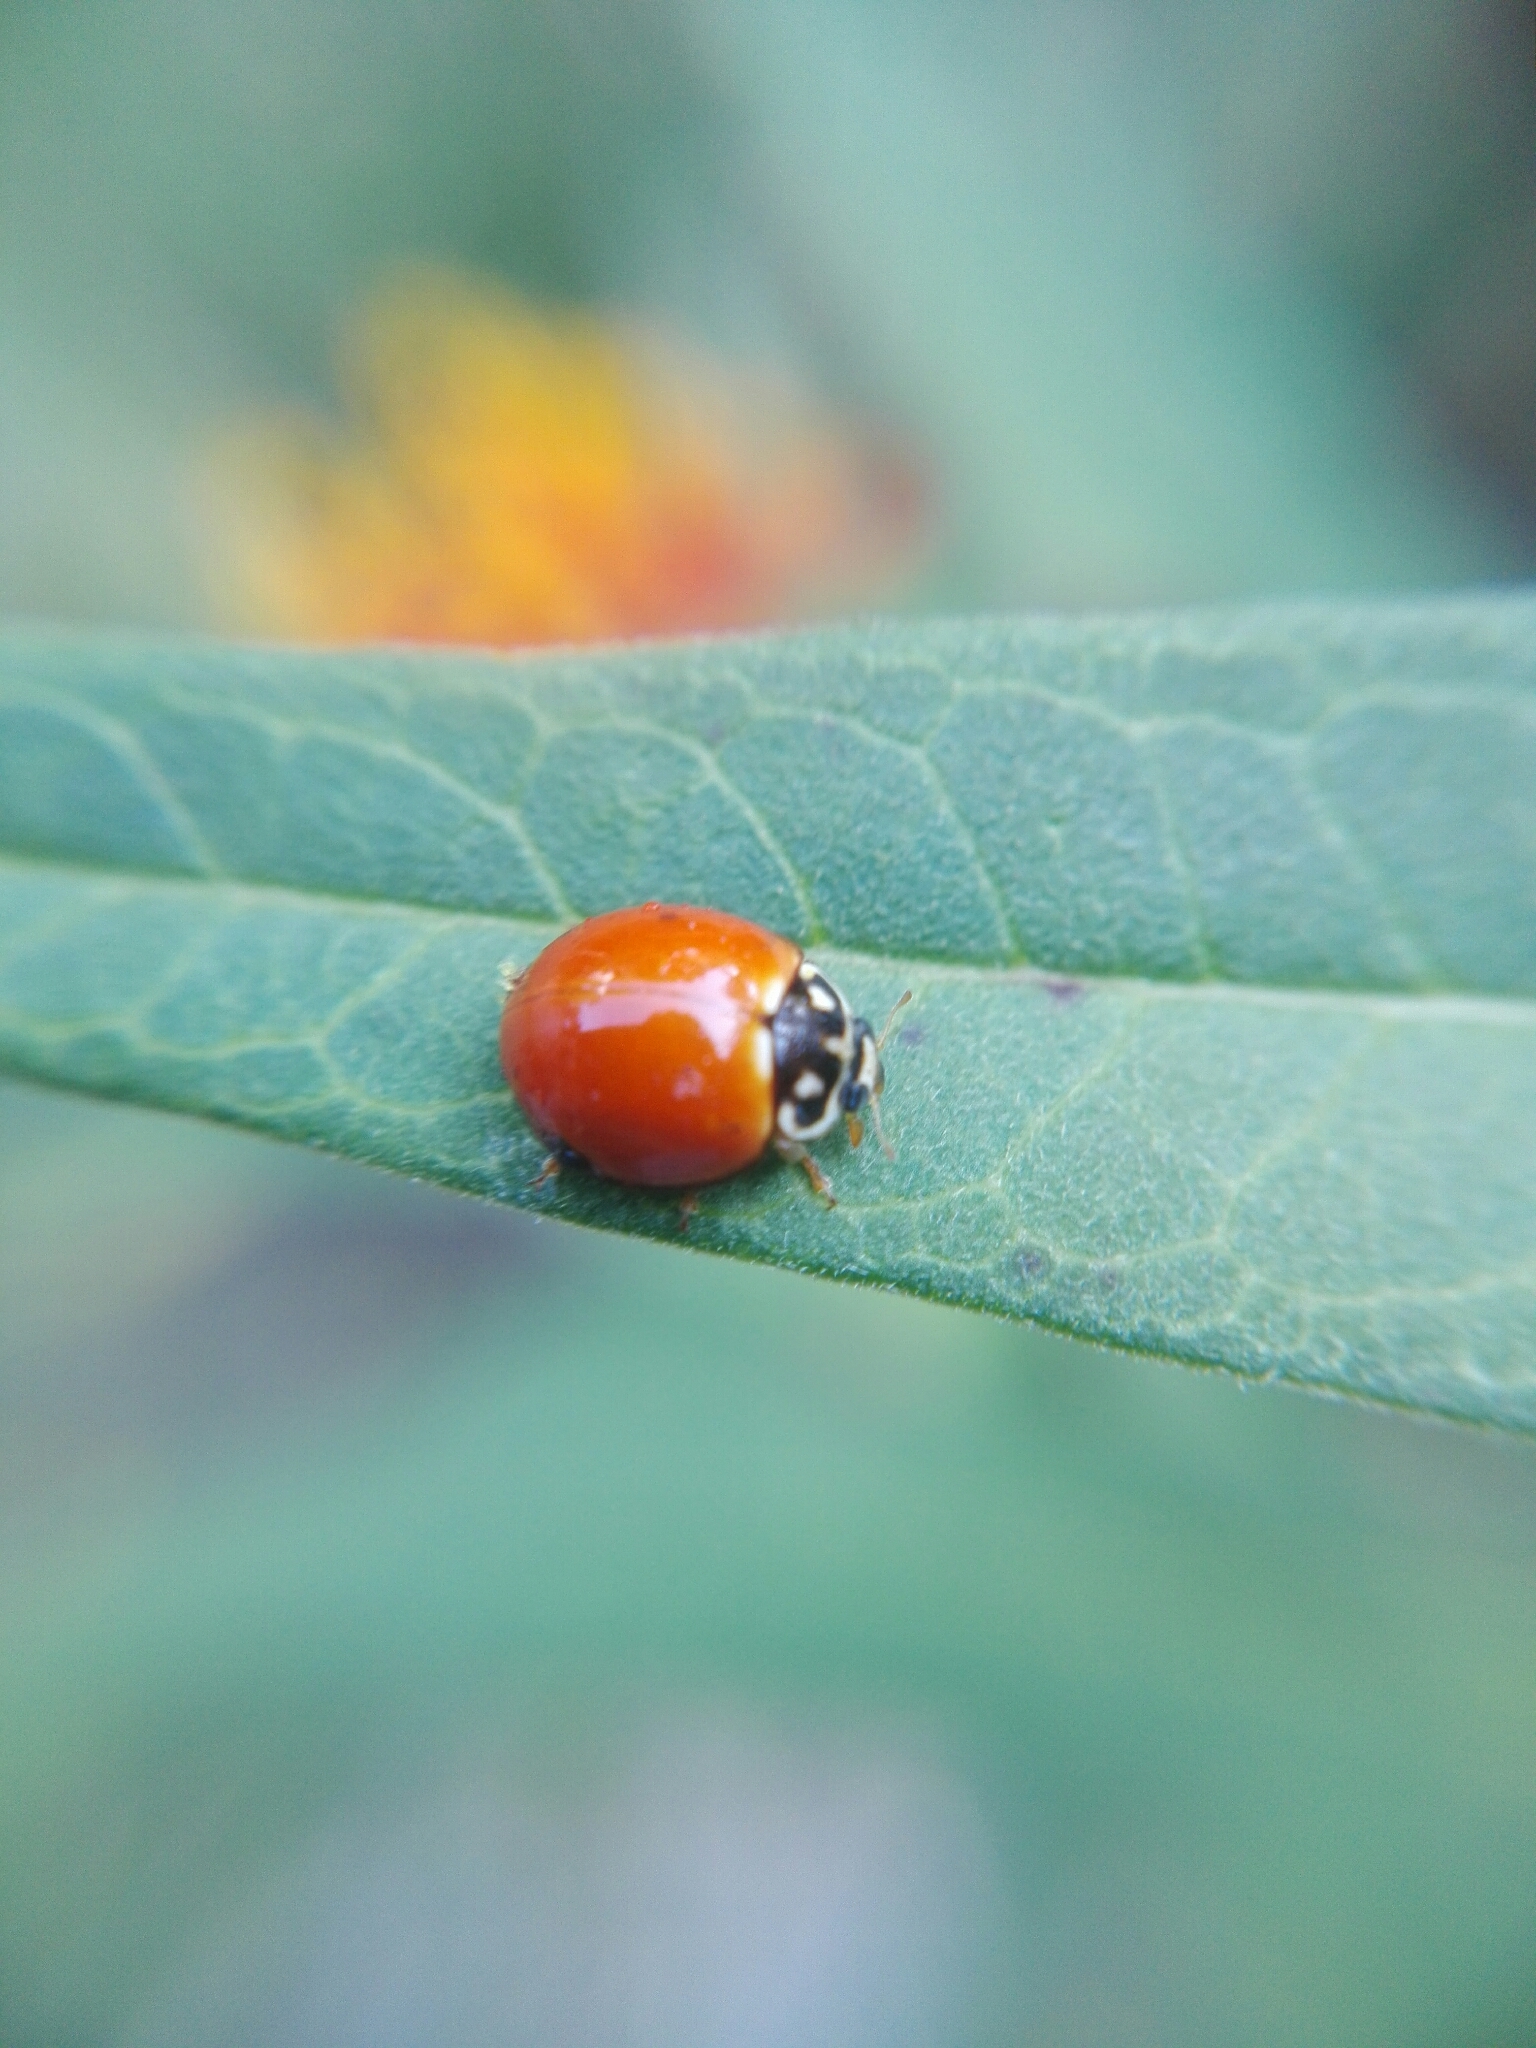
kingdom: Animalia
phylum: Arthropoda
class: Insecta
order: Coleoptera
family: Coccinellidae
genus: Cycloneda
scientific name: Cycloneda sanguinea
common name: Ladybird beetle
